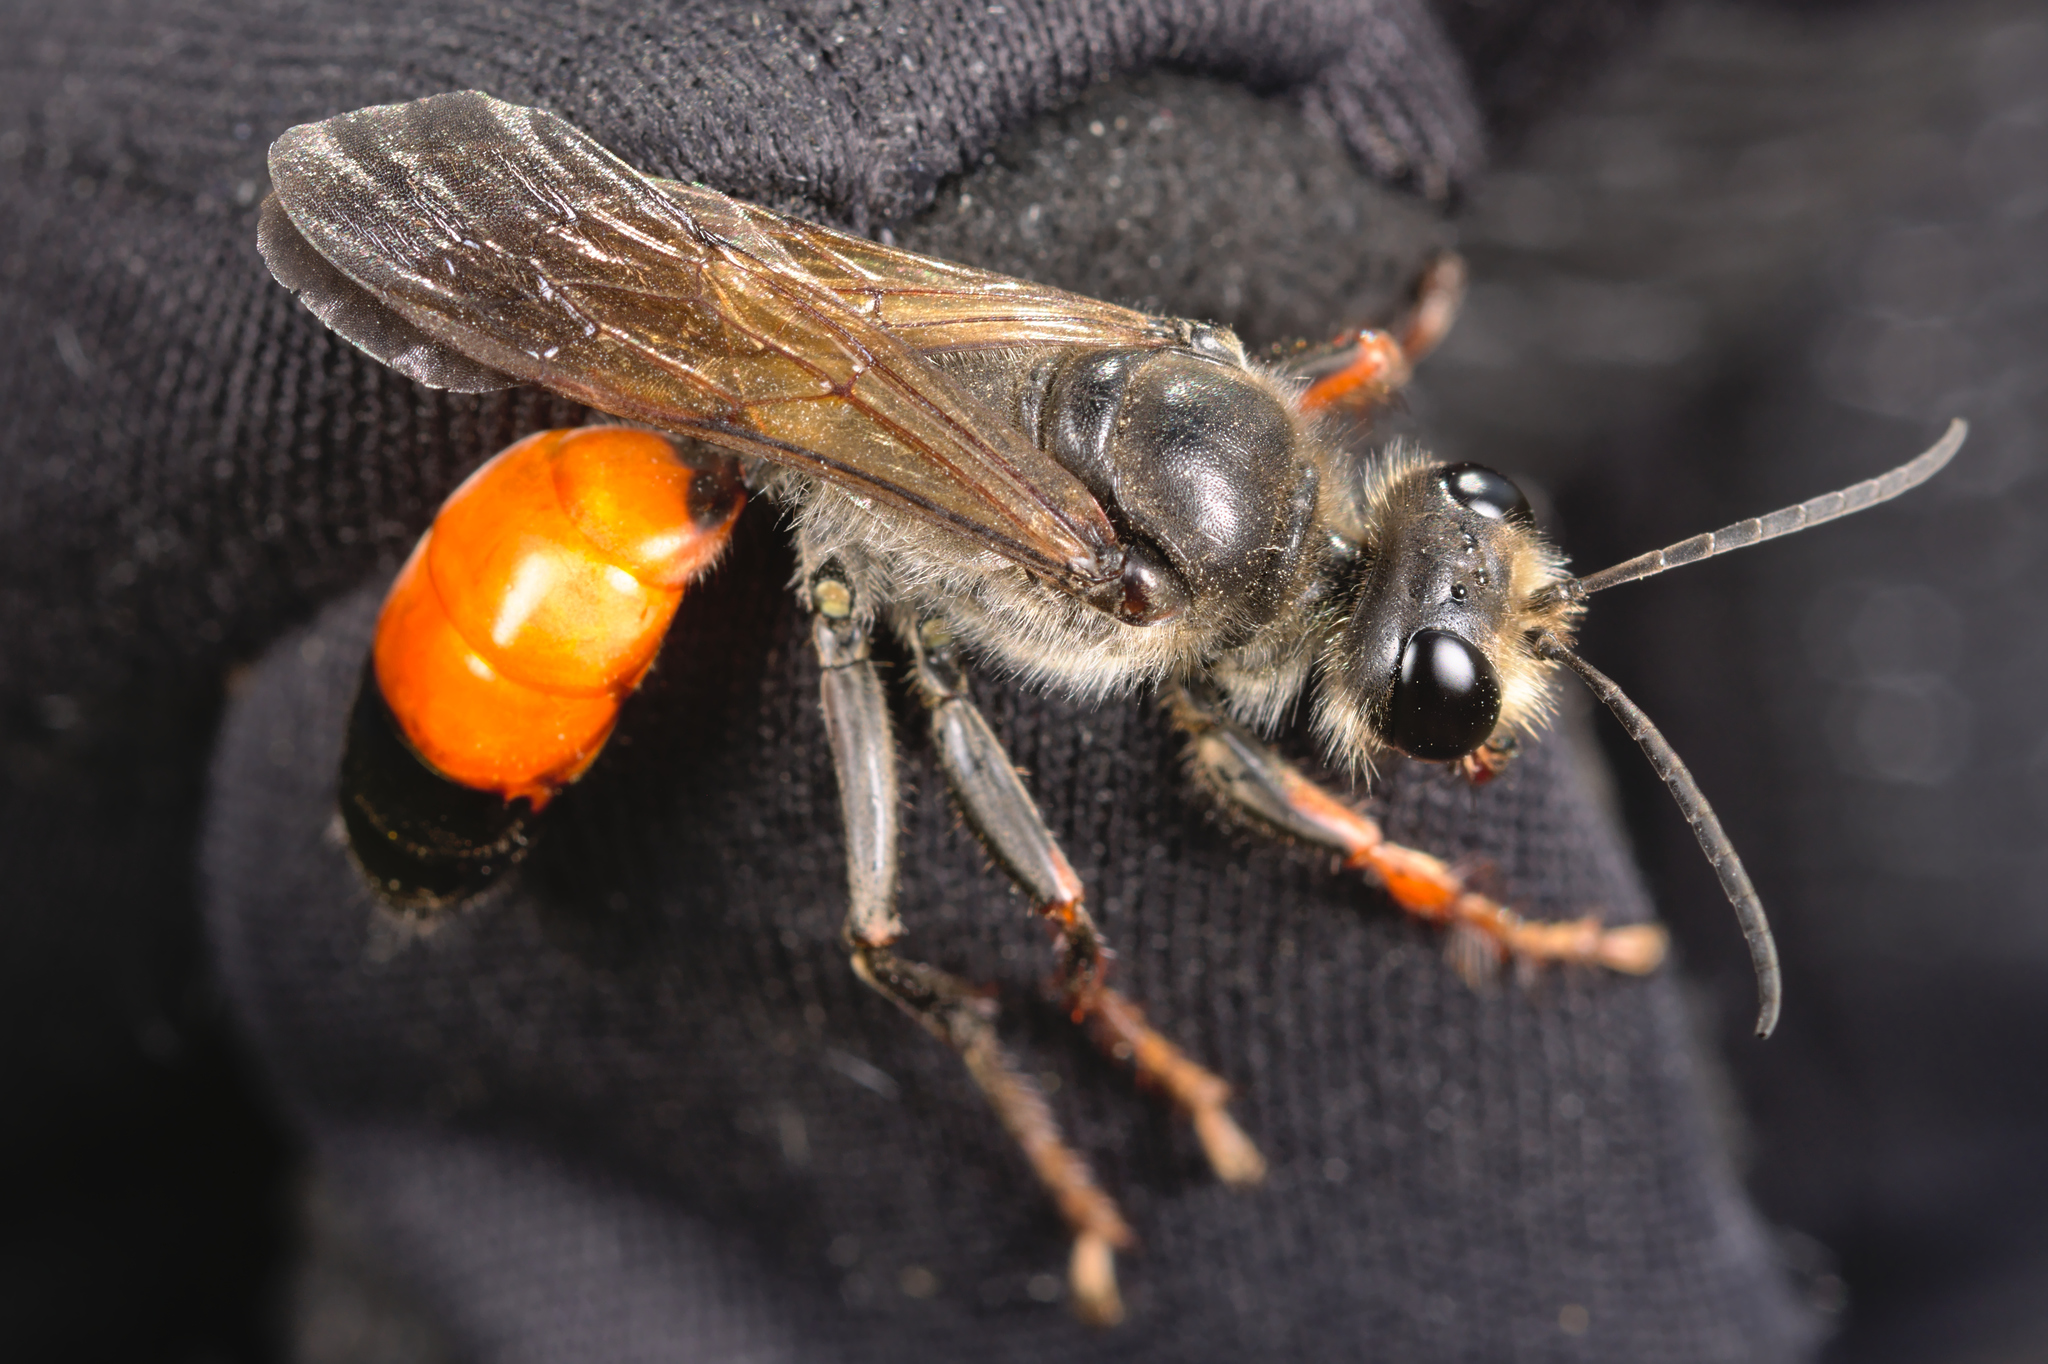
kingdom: Animalia
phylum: Arthropoda
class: Insecta
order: Hymenoptera
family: Sphecidae
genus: Sphex
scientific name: Sphex funerarius
